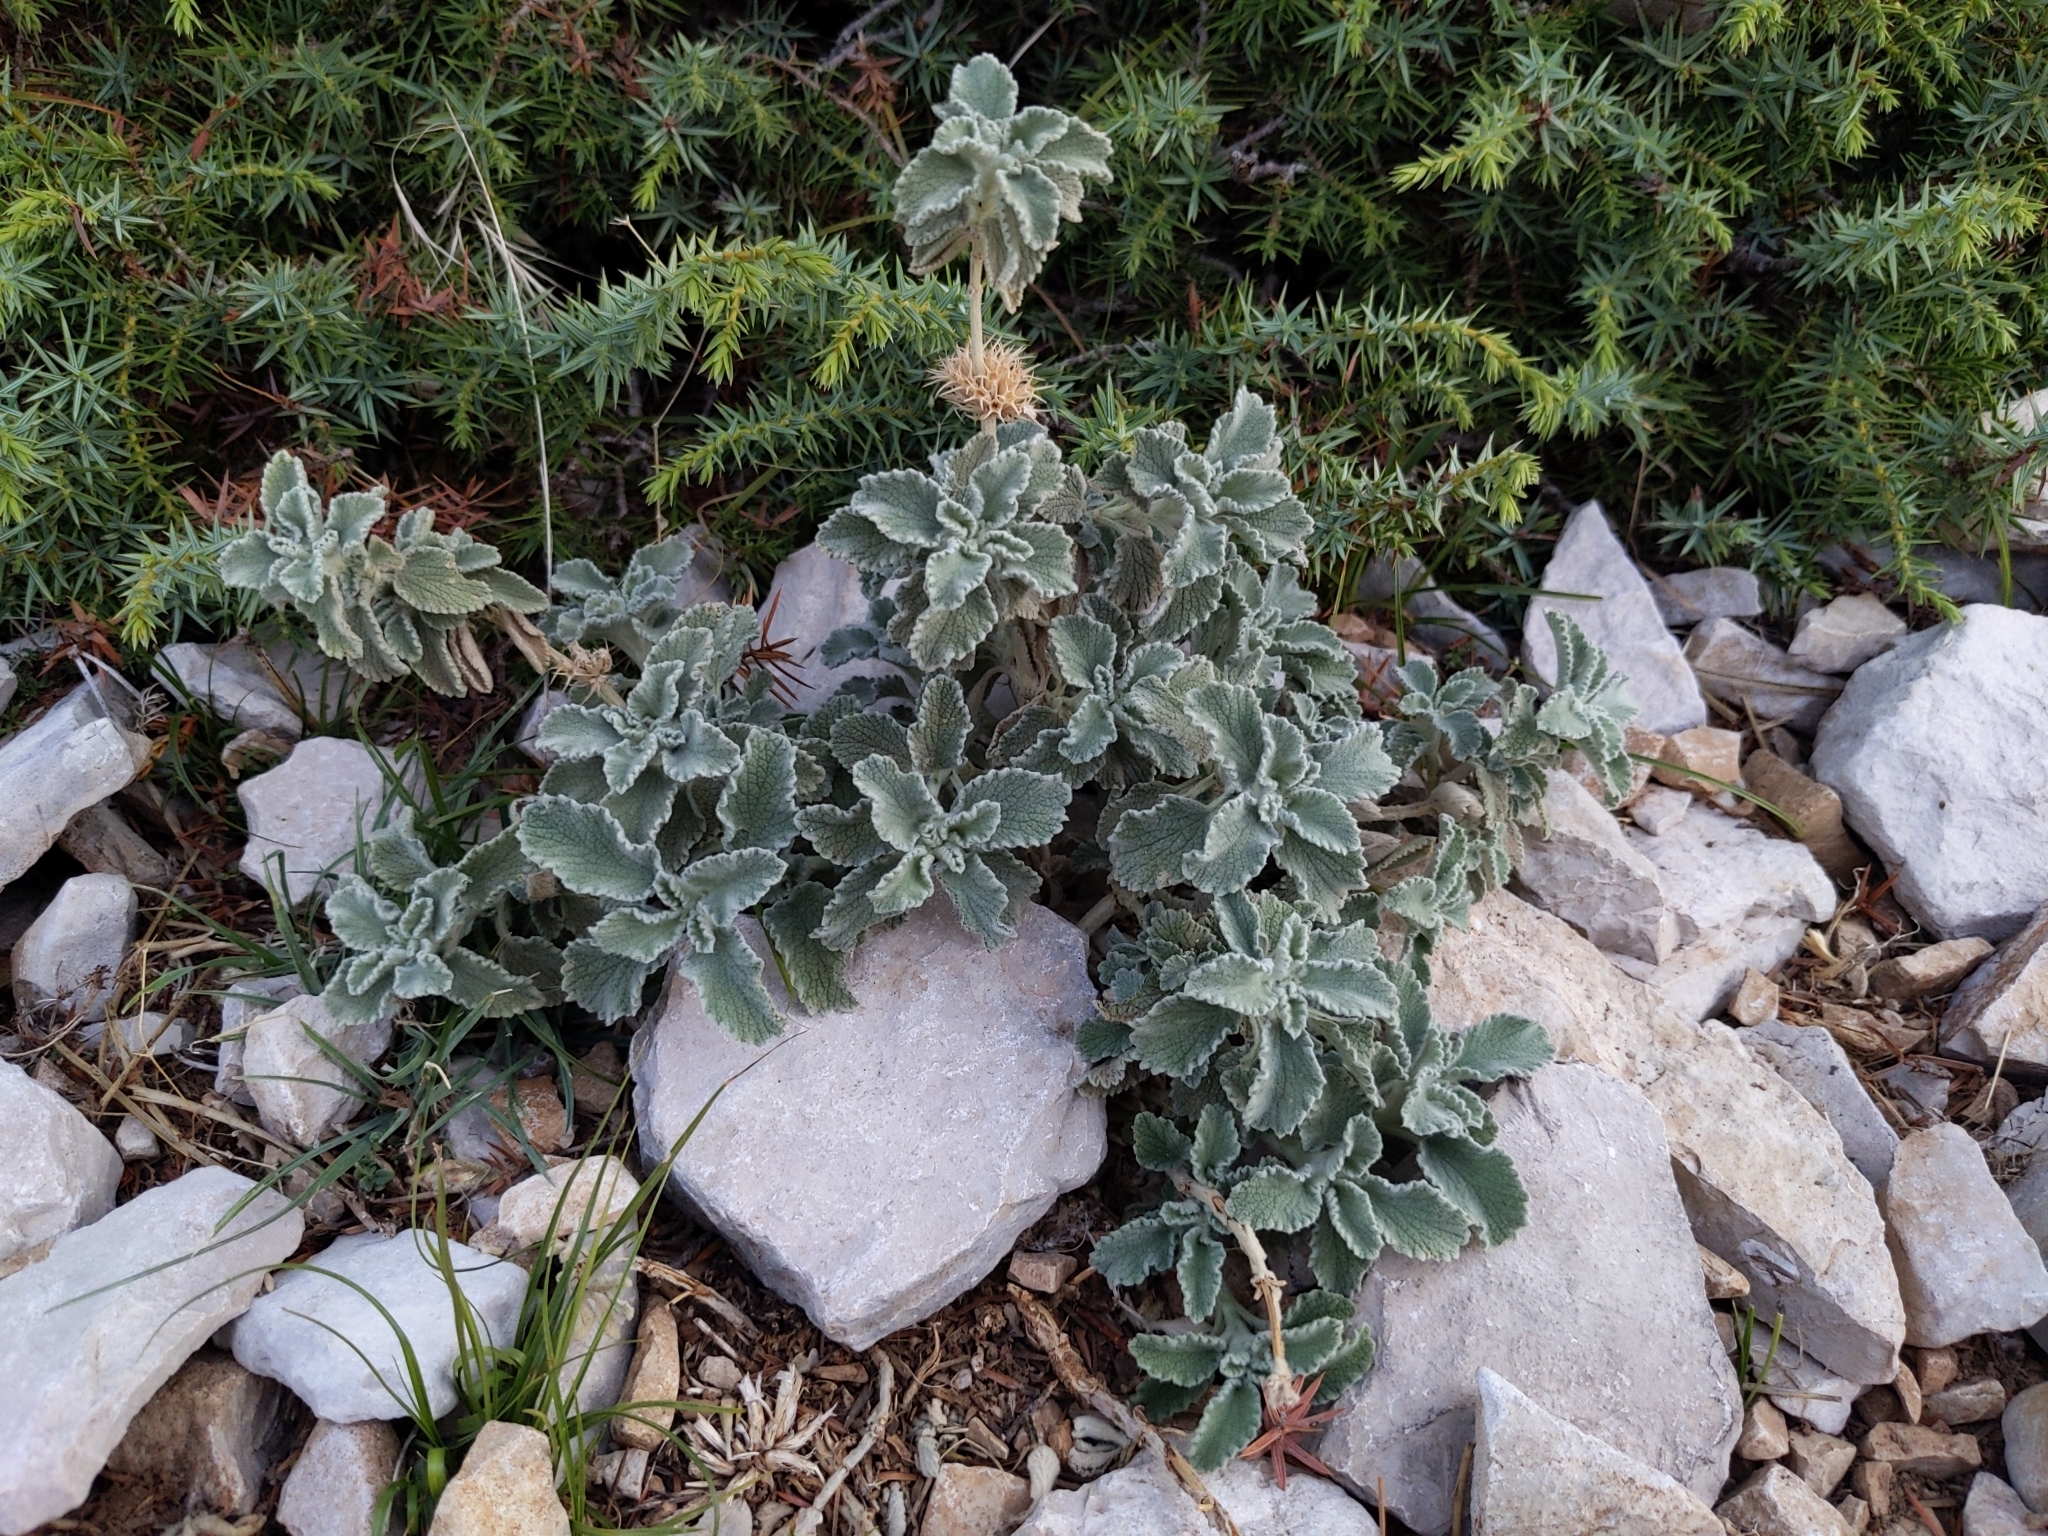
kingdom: Plantae
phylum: Tracheophyta
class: Magnoliopsida
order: Lamiales
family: Lamiaceae
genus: Marrubium
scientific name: Marrubium incanum
